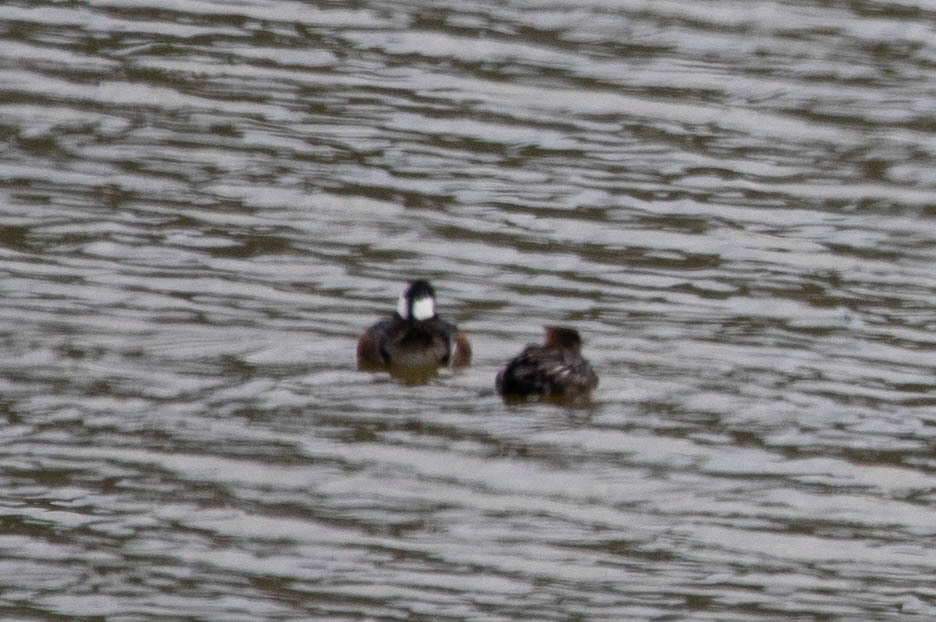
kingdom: Animalia
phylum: Chordata
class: Aves
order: Anseriformes
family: Anatidae
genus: Lophodytes
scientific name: Lophodytes cucullatus
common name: Hooded merganser
